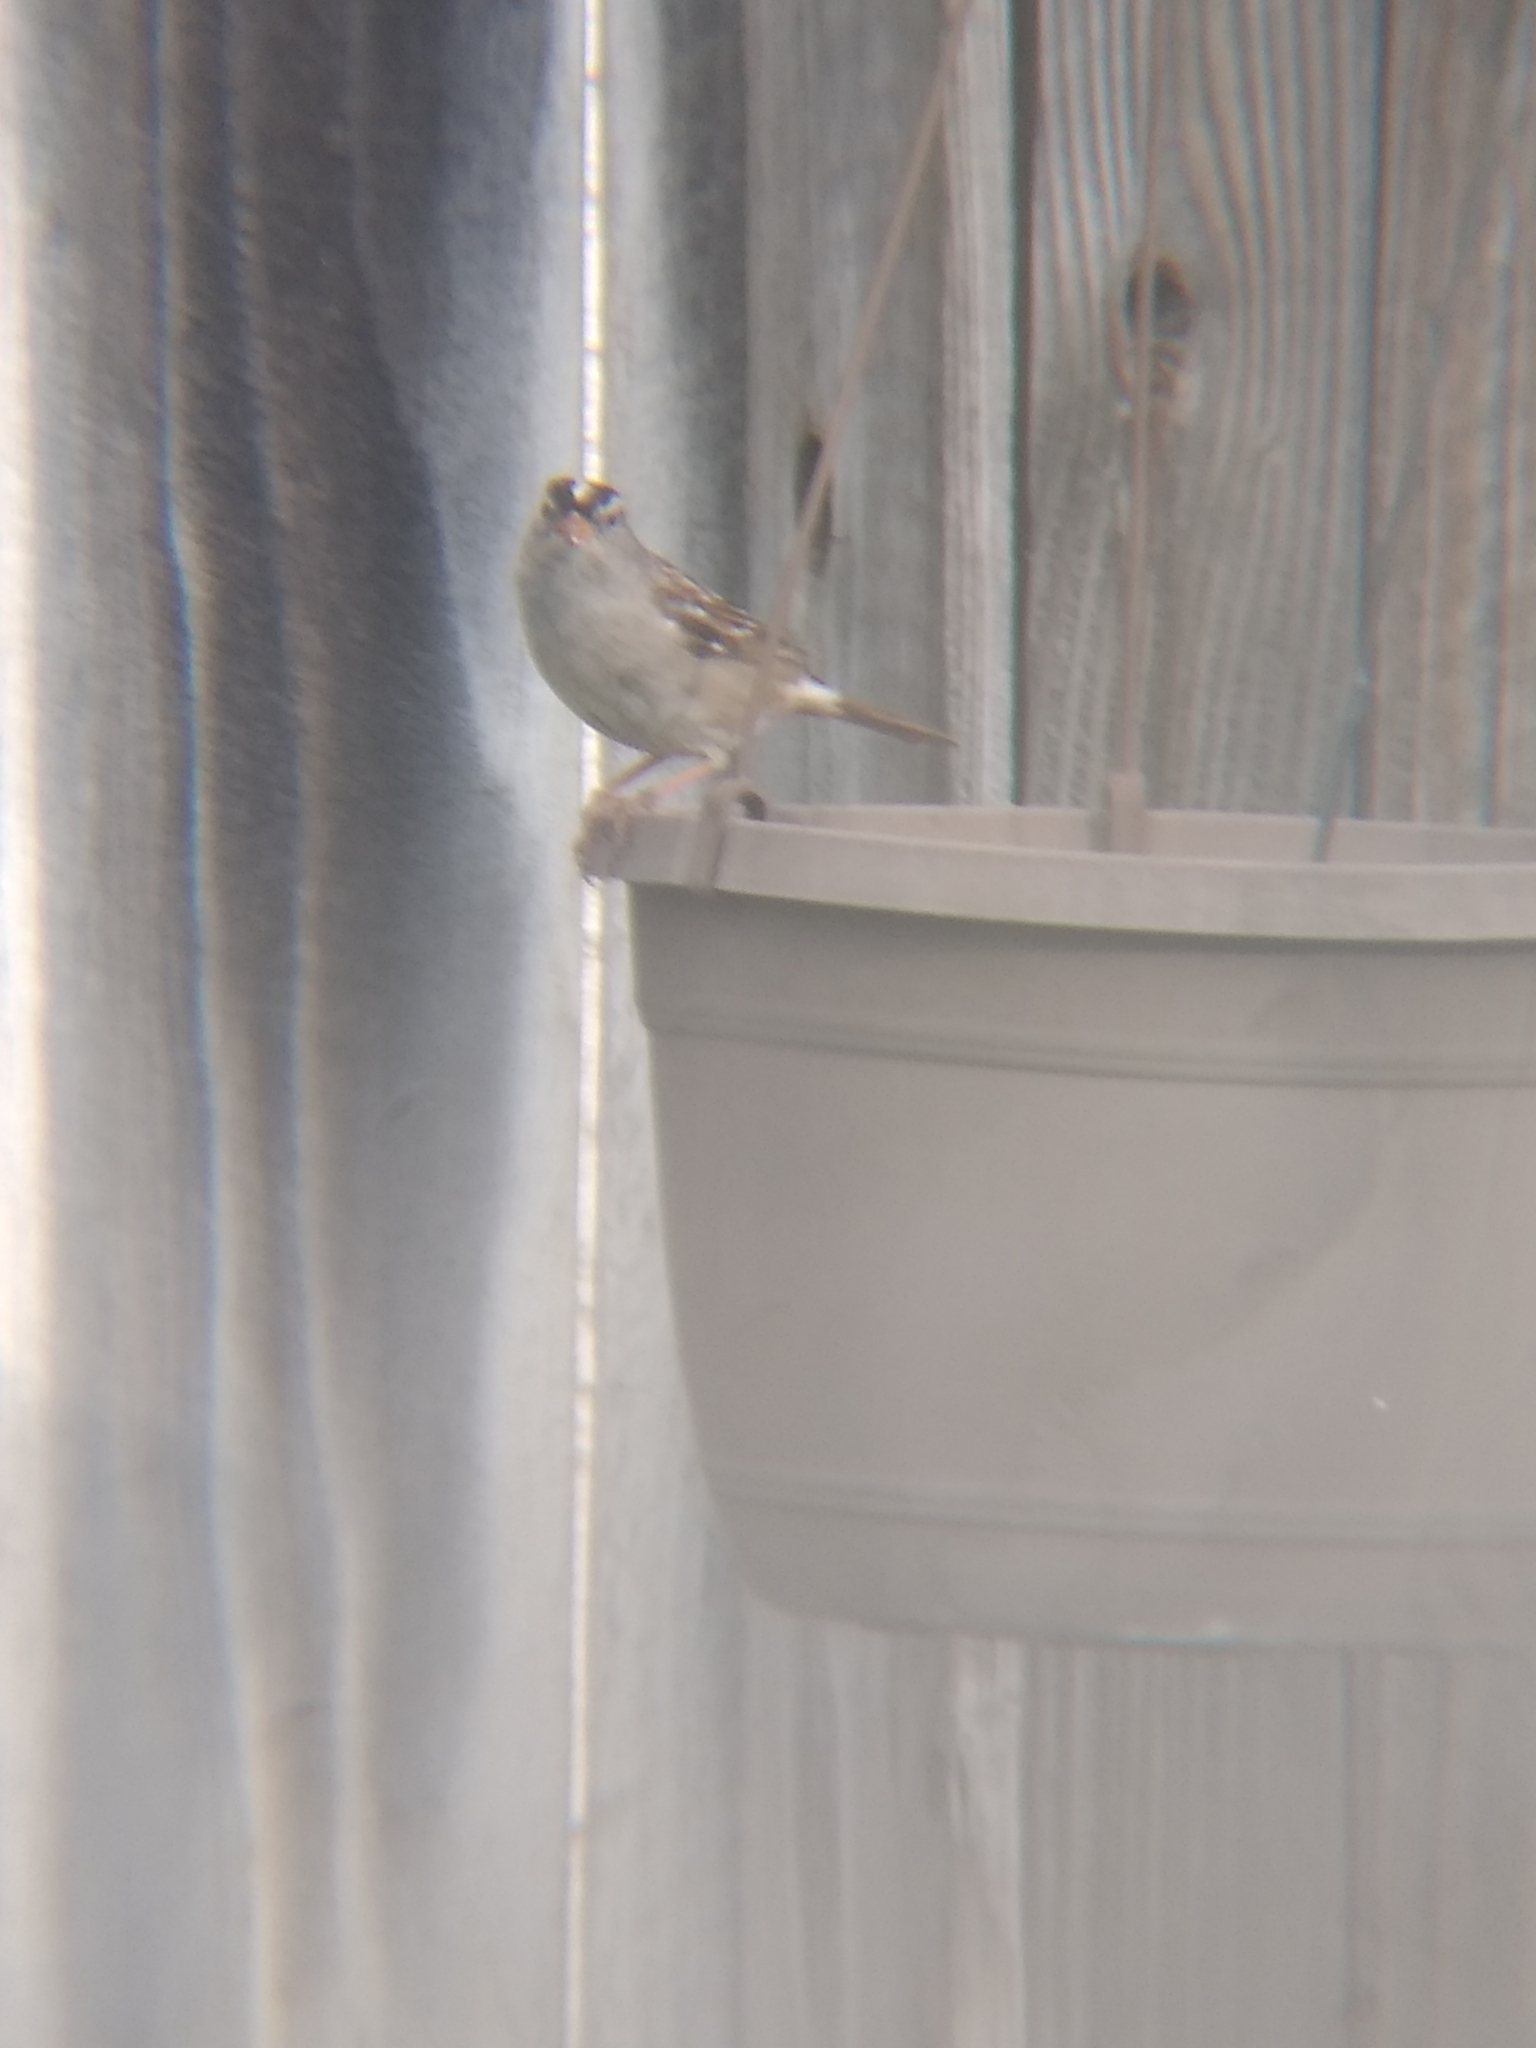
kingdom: Animalia
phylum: Chordata
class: Aves
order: Passeriformes
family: Passerellidae
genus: Zonotrichia
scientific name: Zonotrichia leucophrys
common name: White-crowned sparrow
